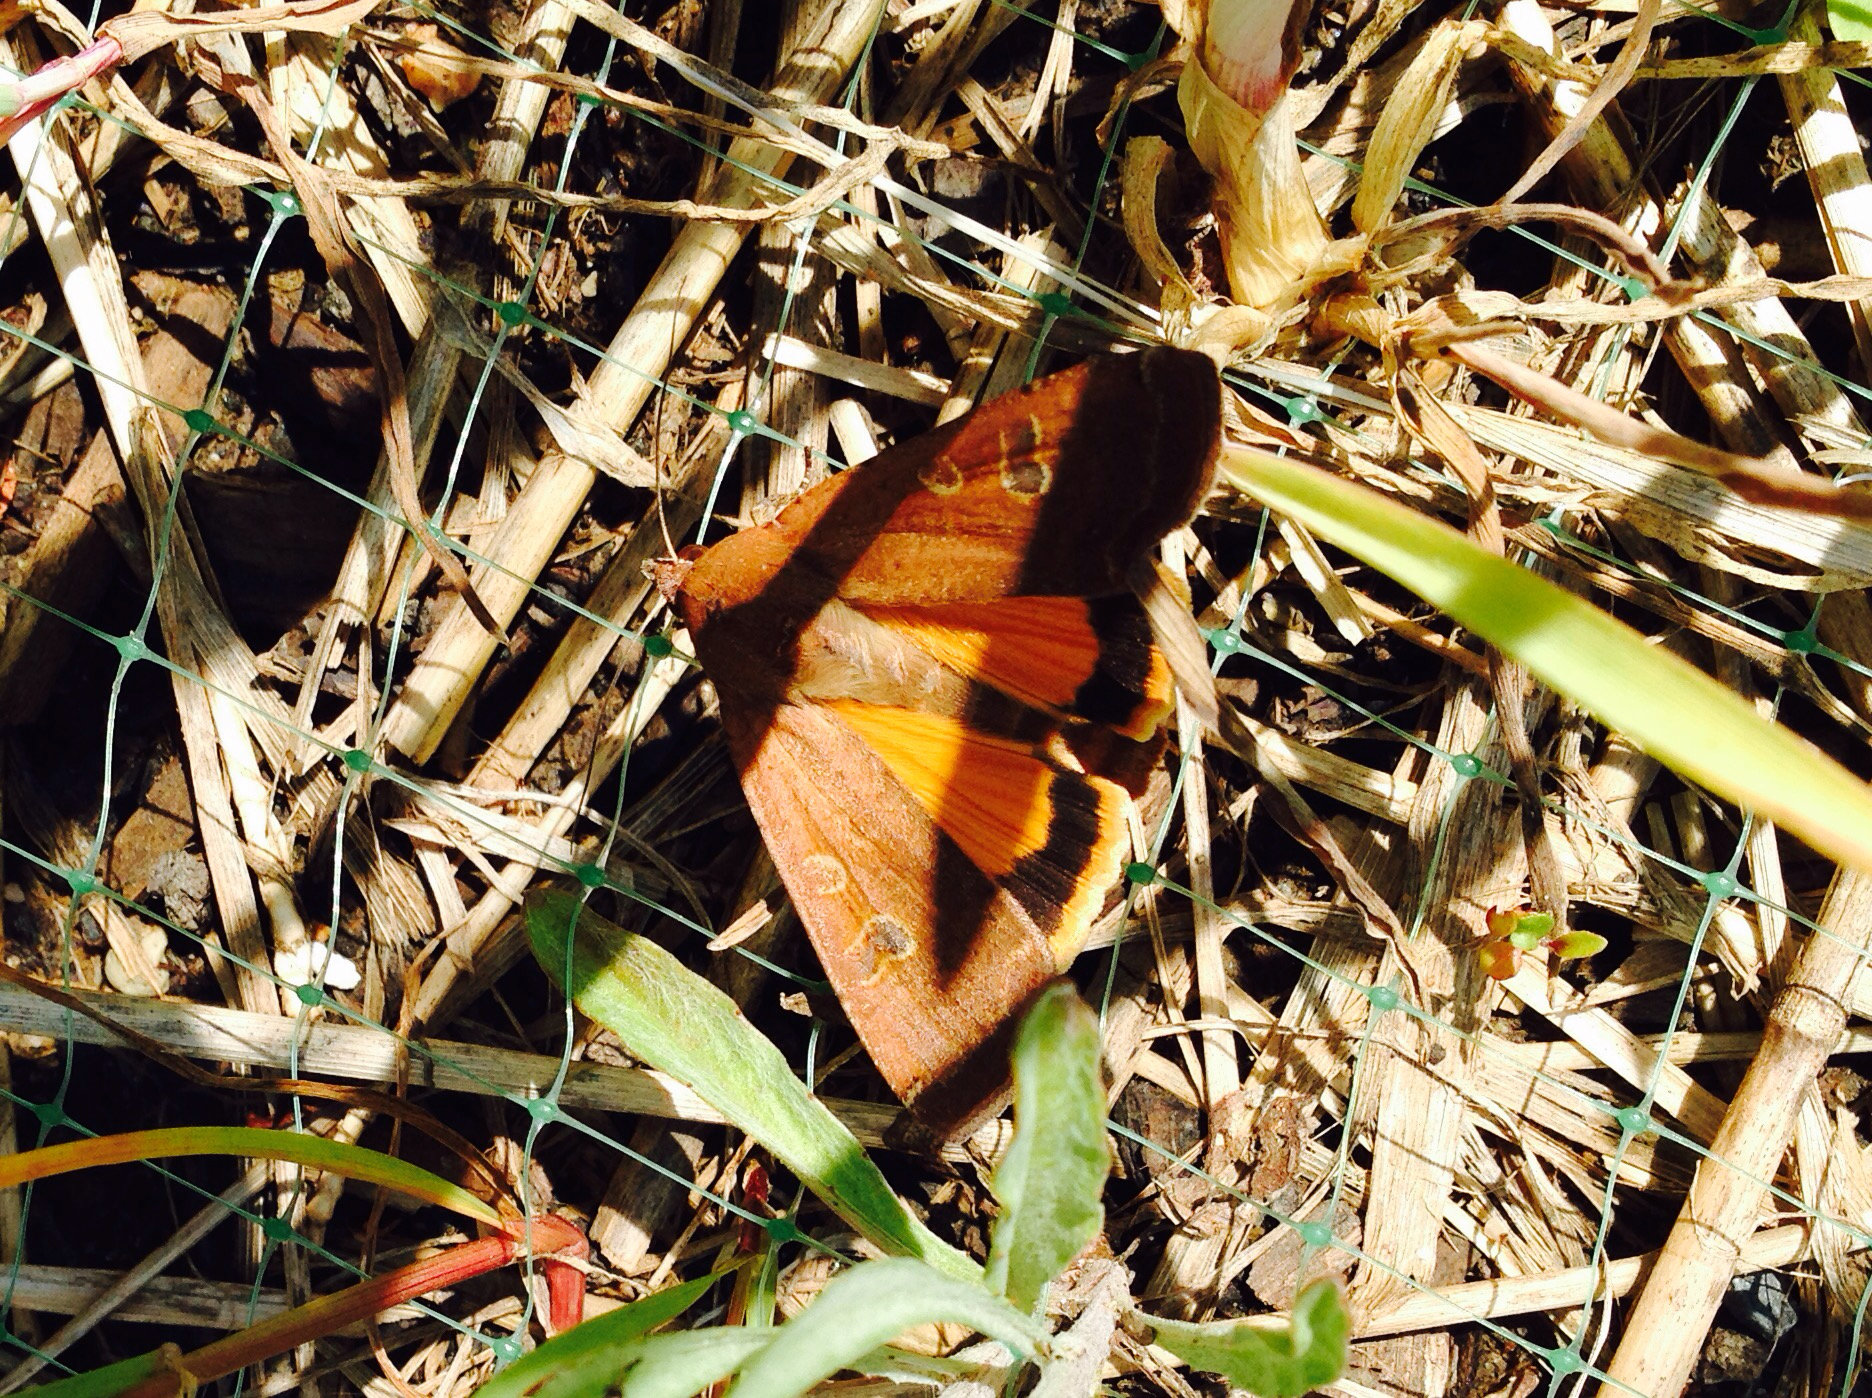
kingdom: Animalia
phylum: Arthropoda
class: Insecta
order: Lepidoptera
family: Noctuidae
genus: Noctua
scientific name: Noctua pronuba
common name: Large yellow underwing
